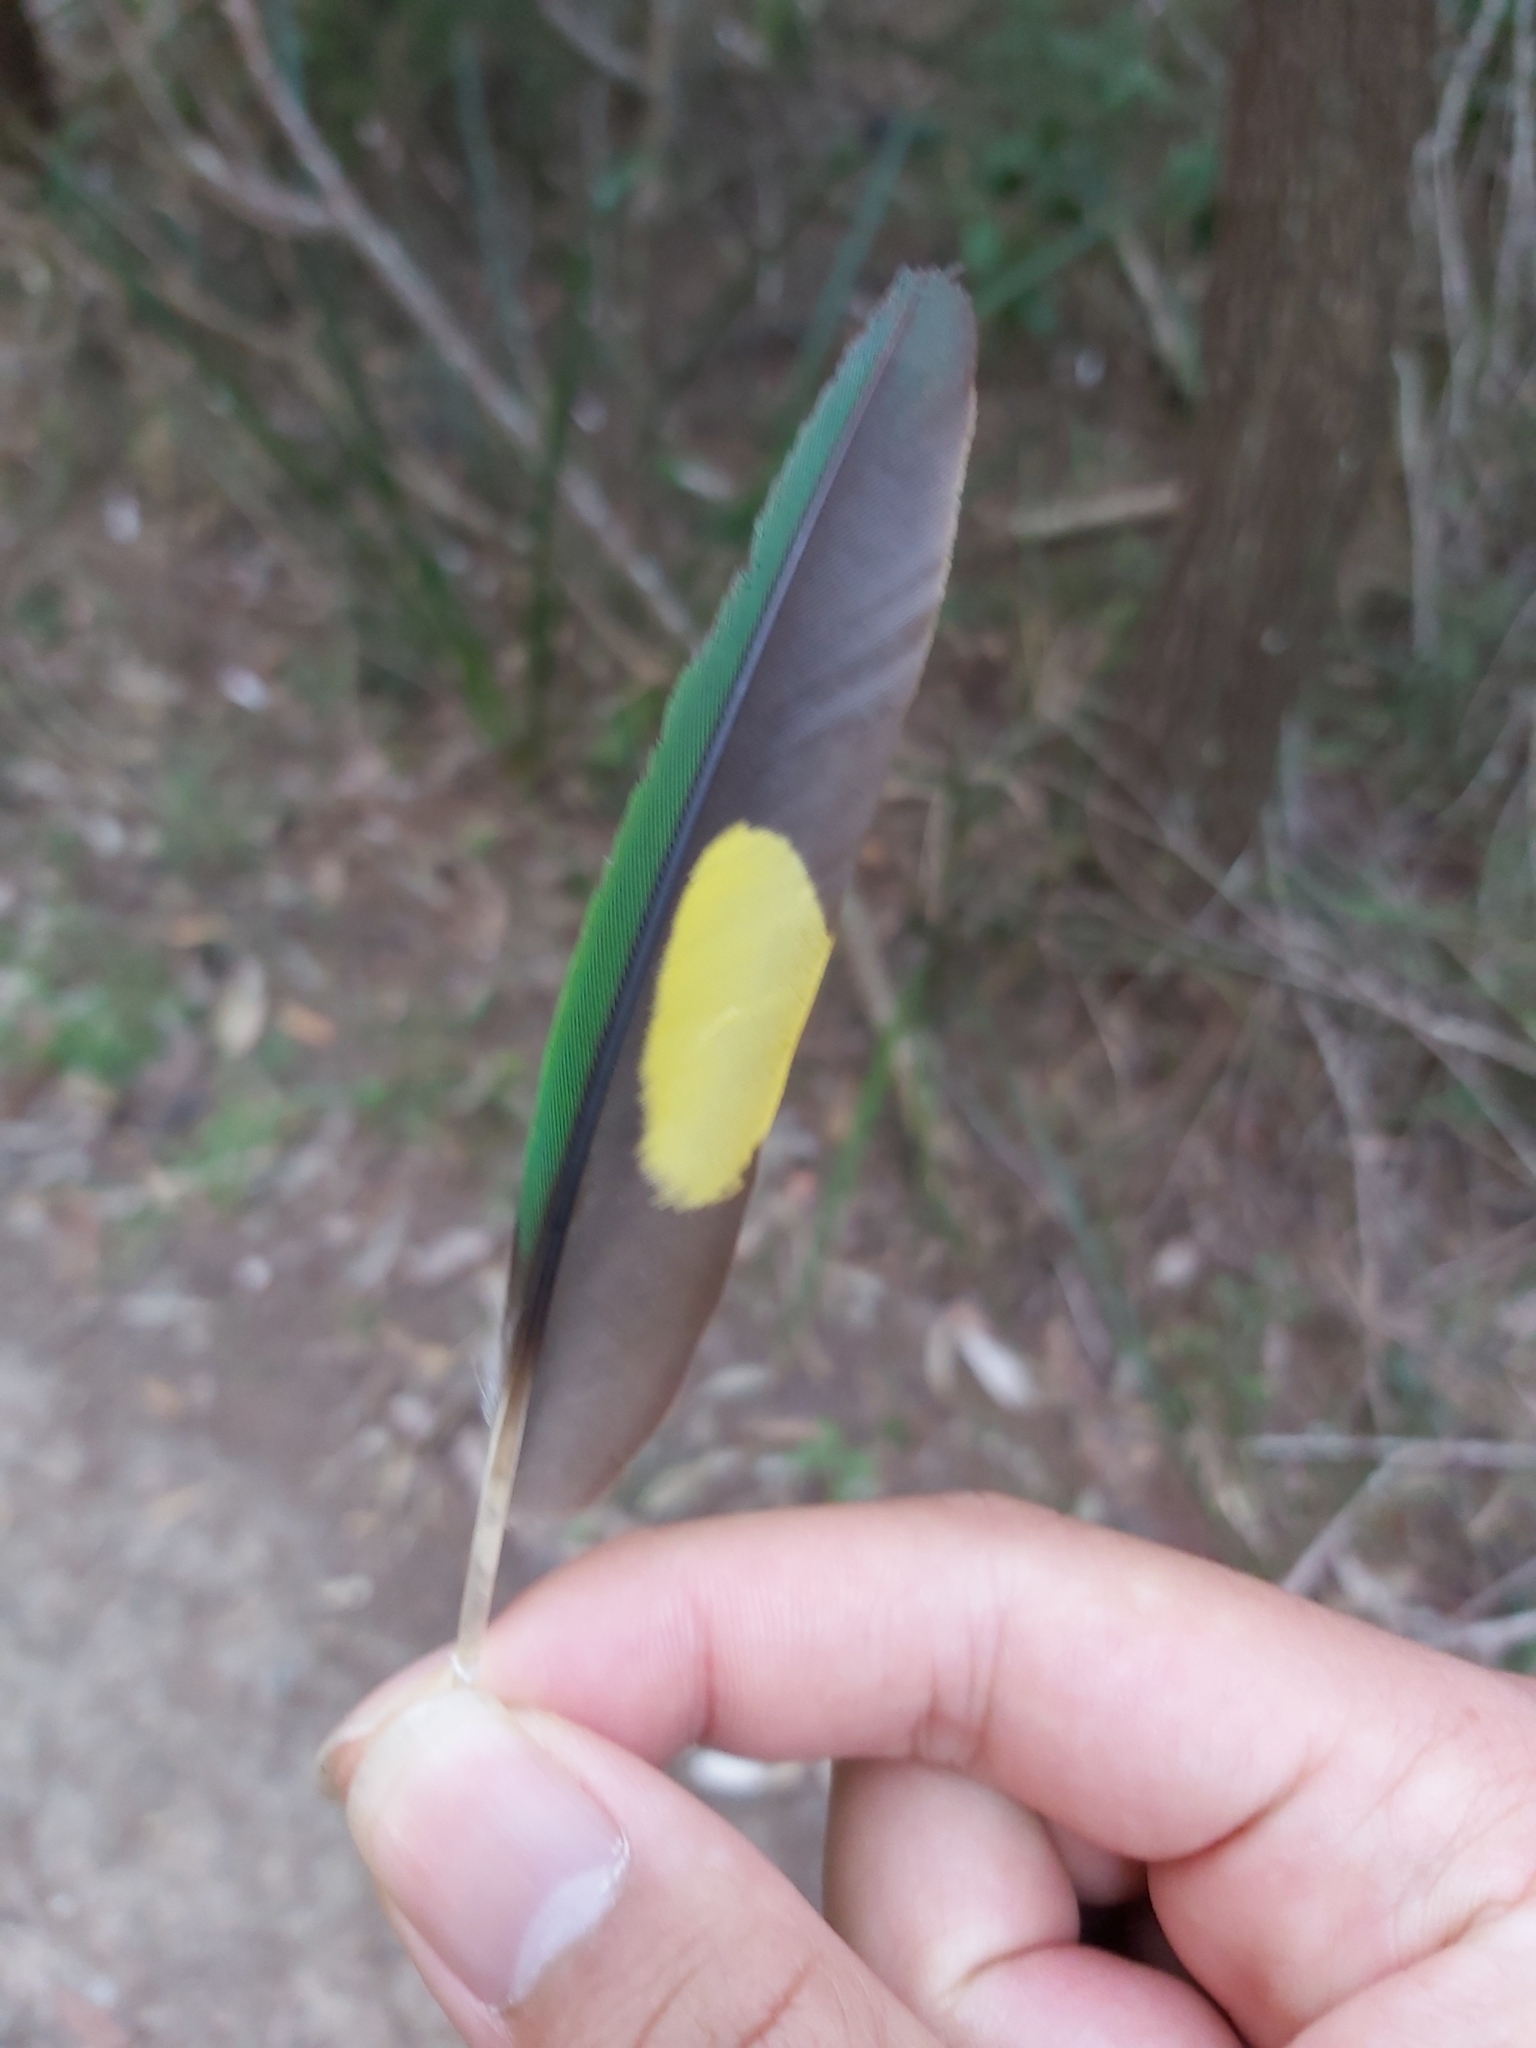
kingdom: Animalia
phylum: Chordata
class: Aves
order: Psittaciformes
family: Psittacidae
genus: Trichoglossus
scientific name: Trichoglossus haematodus
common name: Coconut lorikeet
